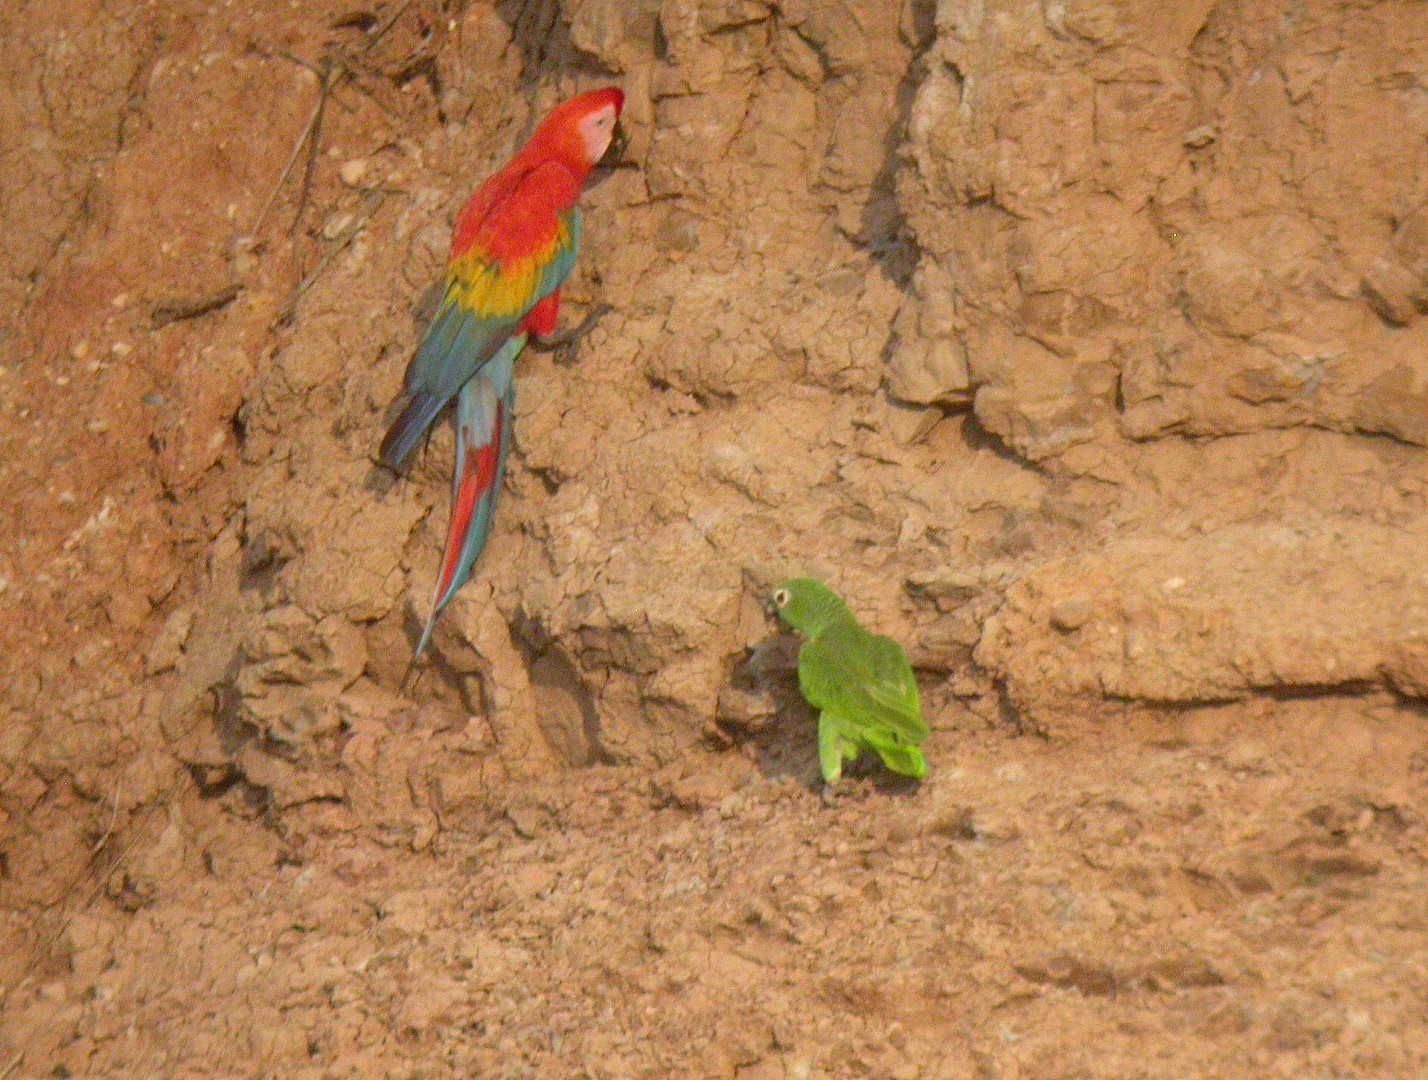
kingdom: Animalia
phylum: Chordata
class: Aves
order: Psittaciformes
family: Psittacidae
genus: Ara
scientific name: Ara macao
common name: Scarlet macaw
